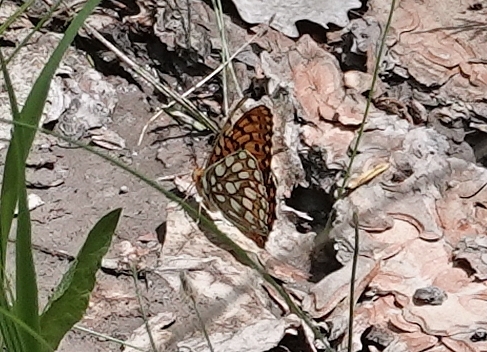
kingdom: Animalia
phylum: Arthropoda
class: Insecta
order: Lepidoptera
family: Nymphalidae
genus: Speyeria
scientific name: Speyeria edwardsii
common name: Edwards' fritillary
